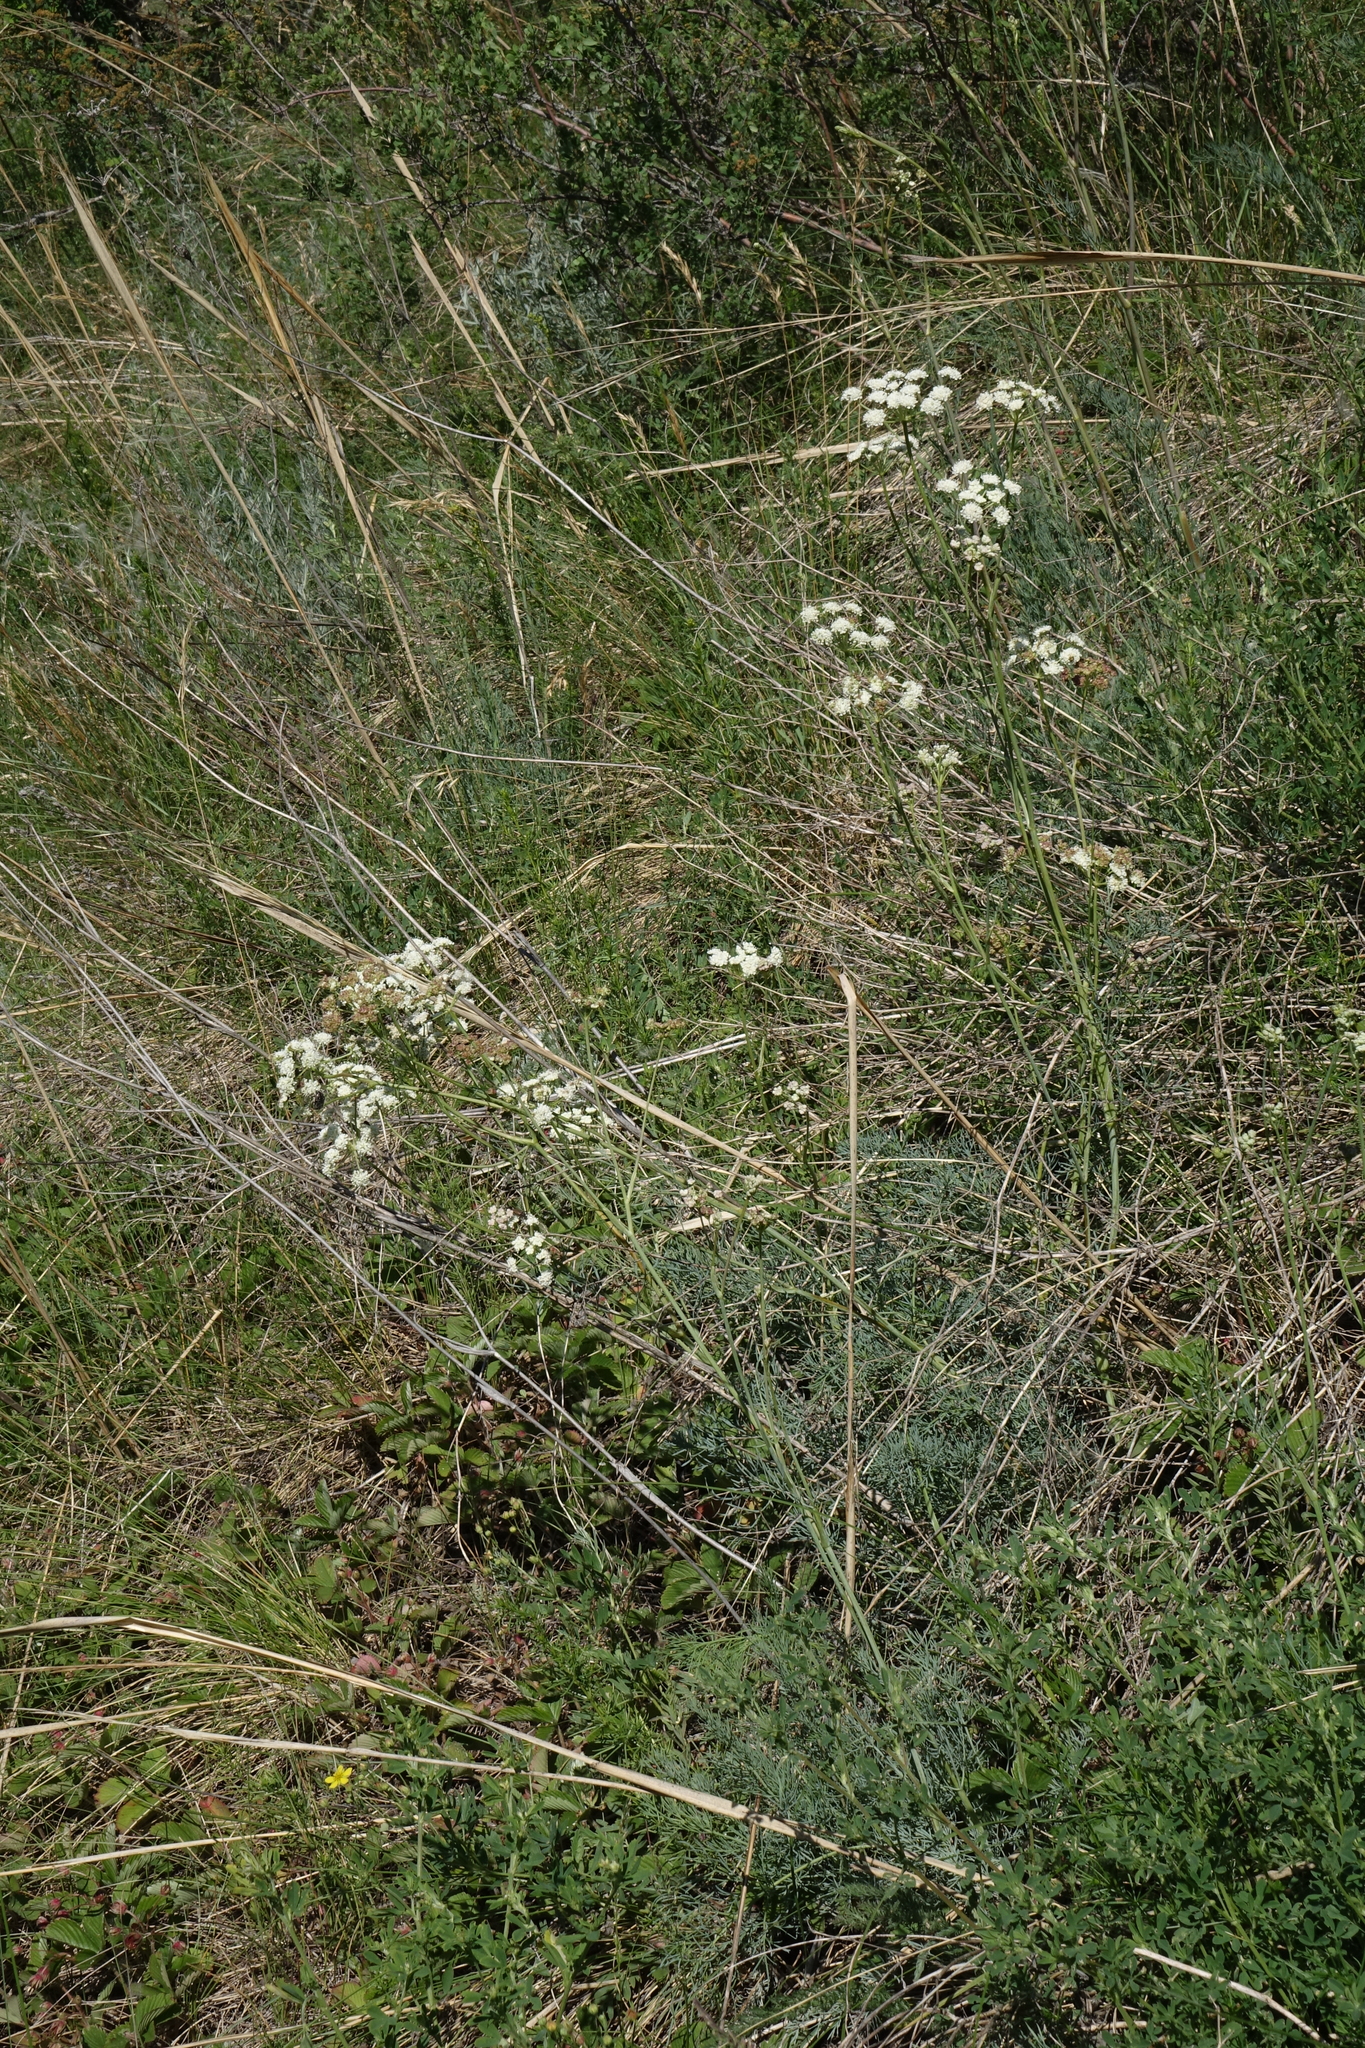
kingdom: Plantae
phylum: Tracheophyta
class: Magnoliopsida
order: Apiales
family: Apiaceae
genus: Seseli
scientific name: Seseli ledebourii
